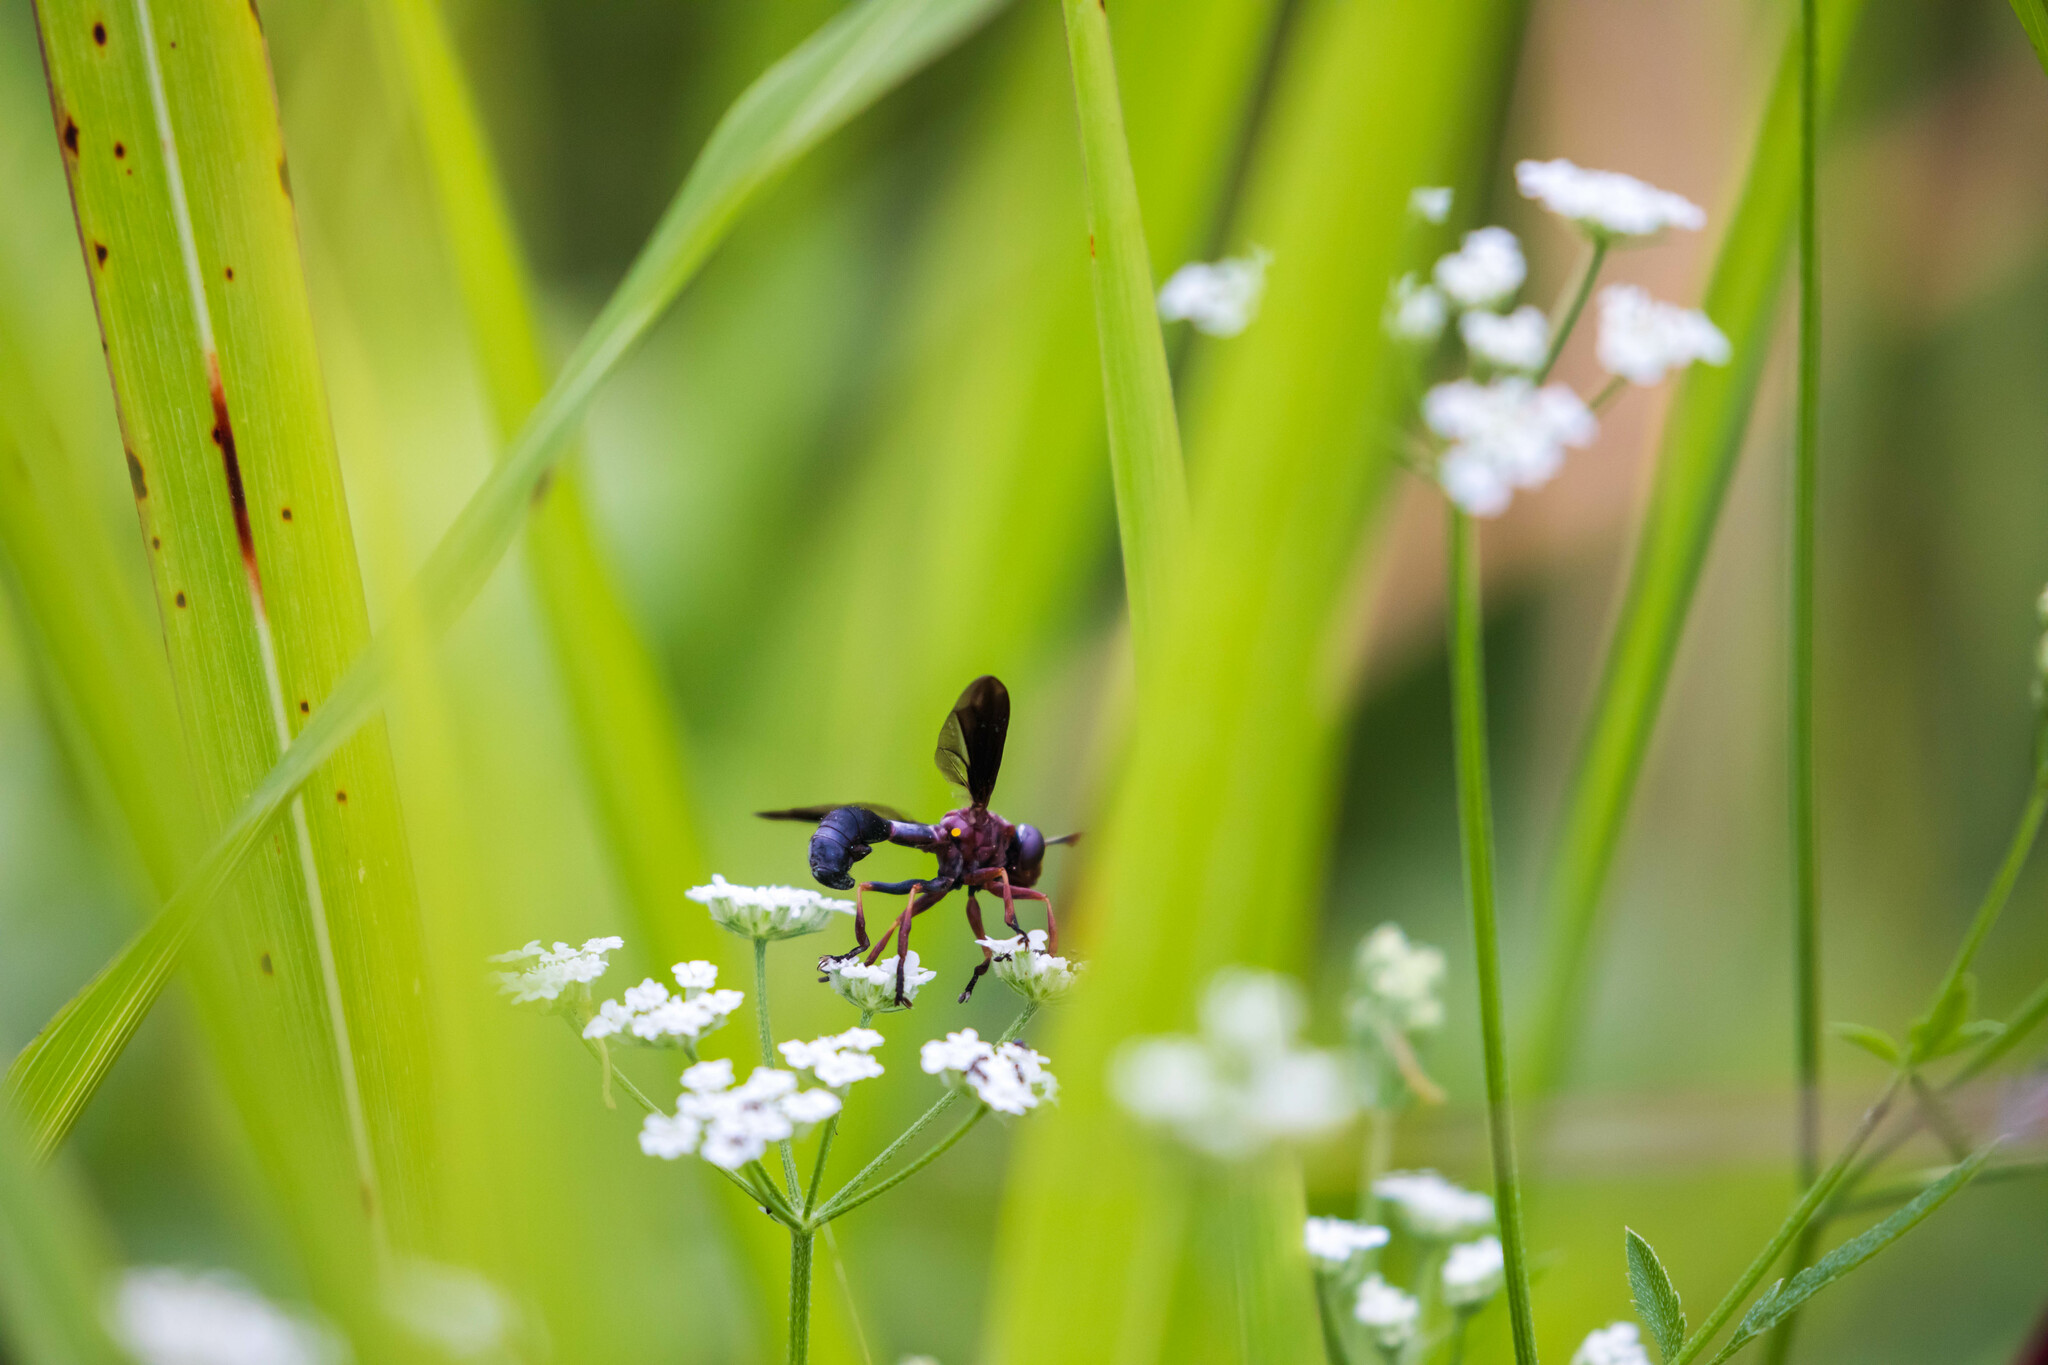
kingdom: Animalia
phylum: Arthropoda
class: Insecta
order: Diptera
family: Conopidae
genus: Physocephala
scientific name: Physocephala floridana
